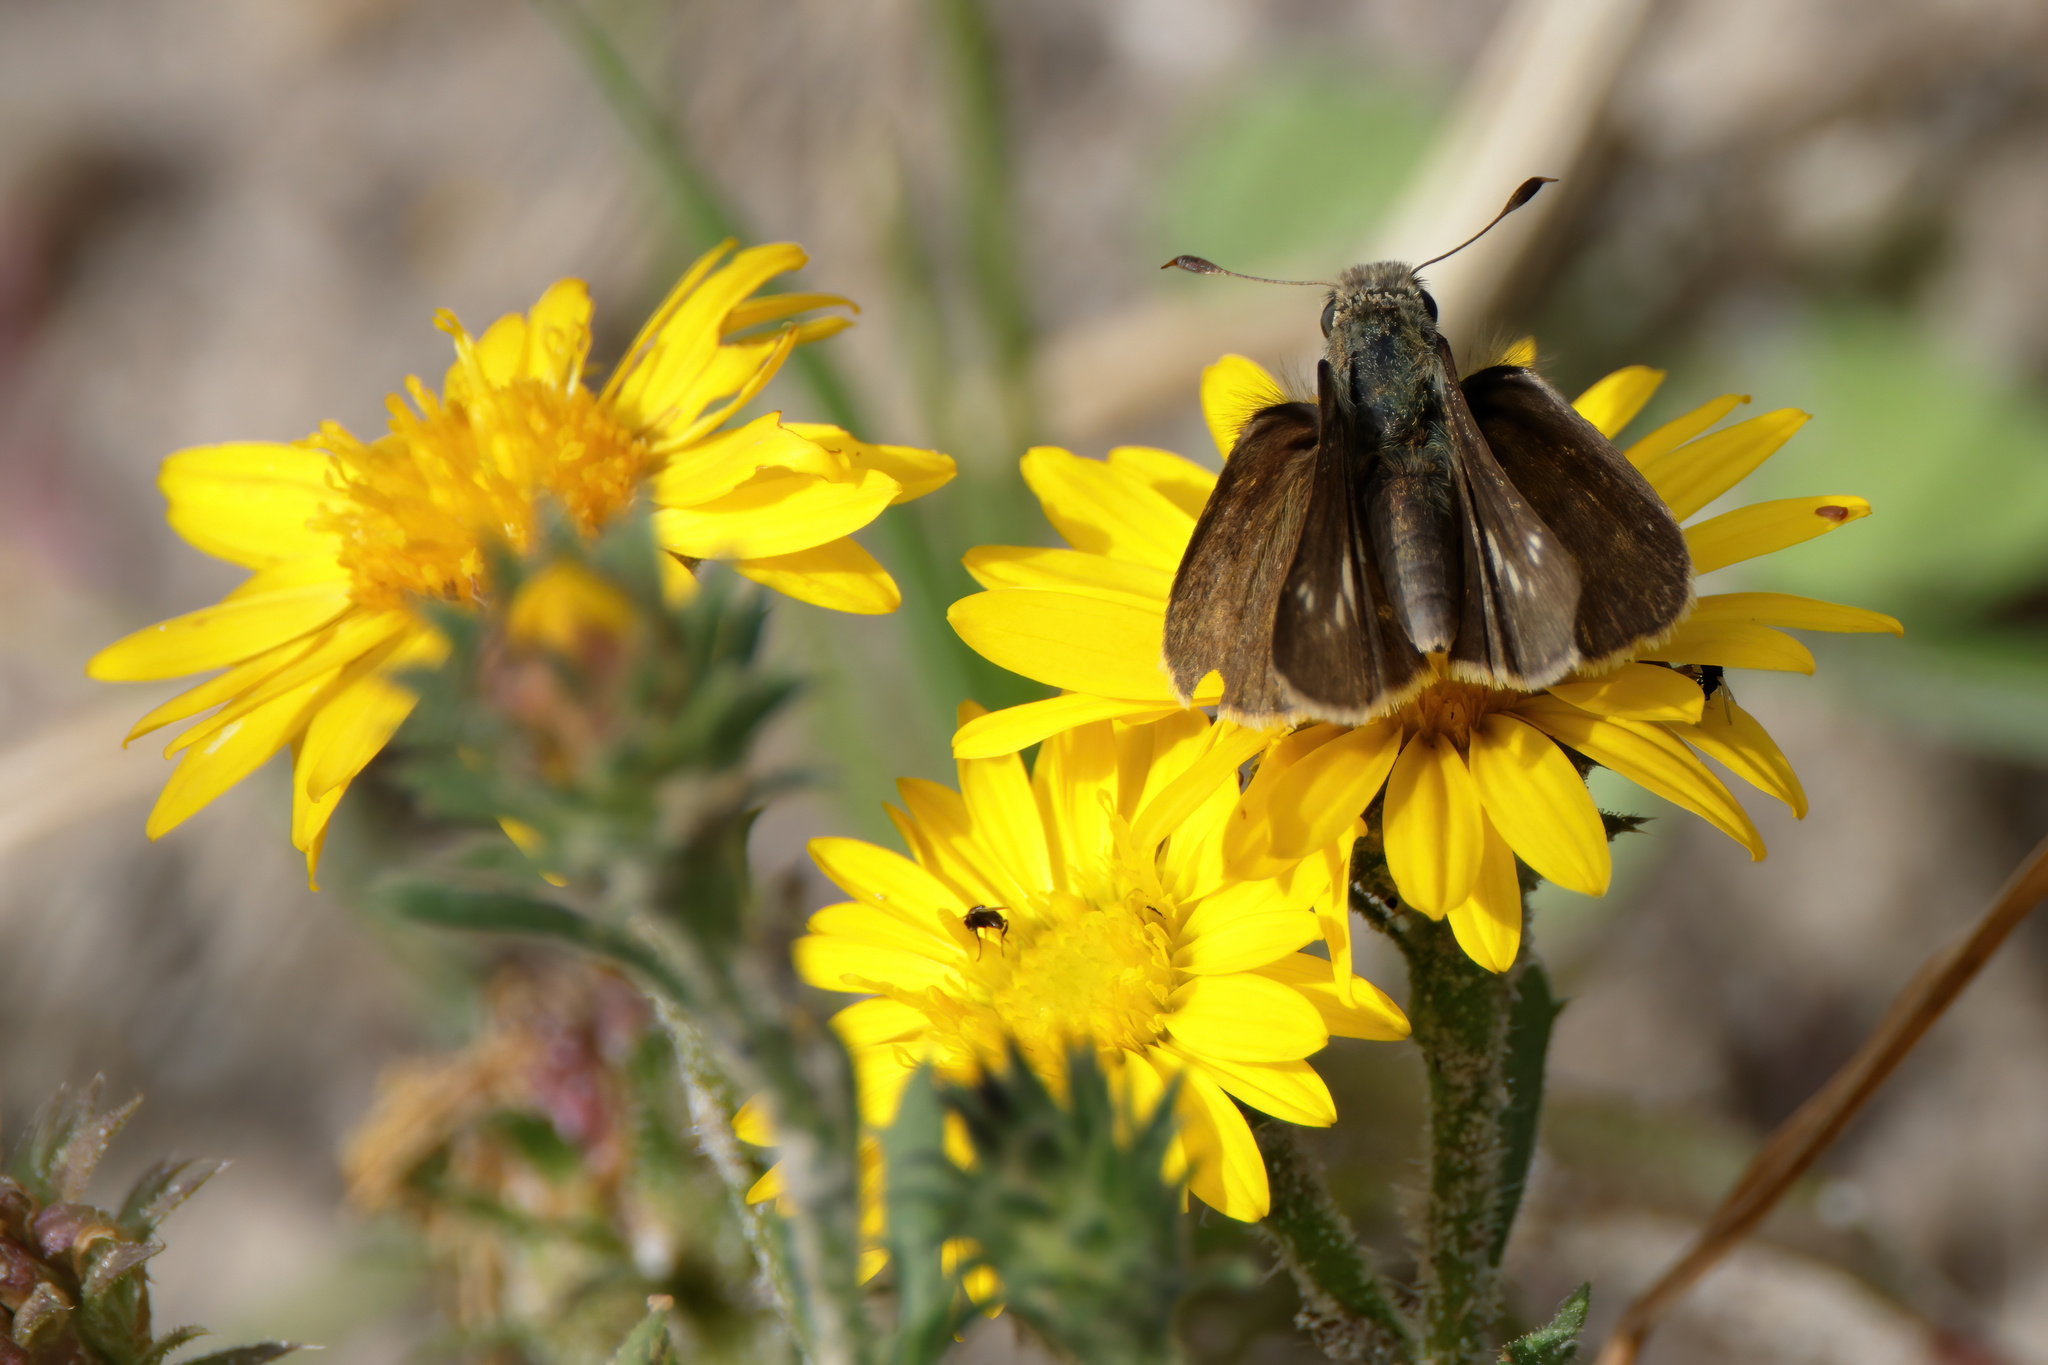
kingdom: Animalia
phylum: Arthropoda
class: Insecta
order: Lepidoptera
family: Hesperiidae
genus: Panoquina
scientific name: Panoquina panoquinoides
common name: Beach skipper
